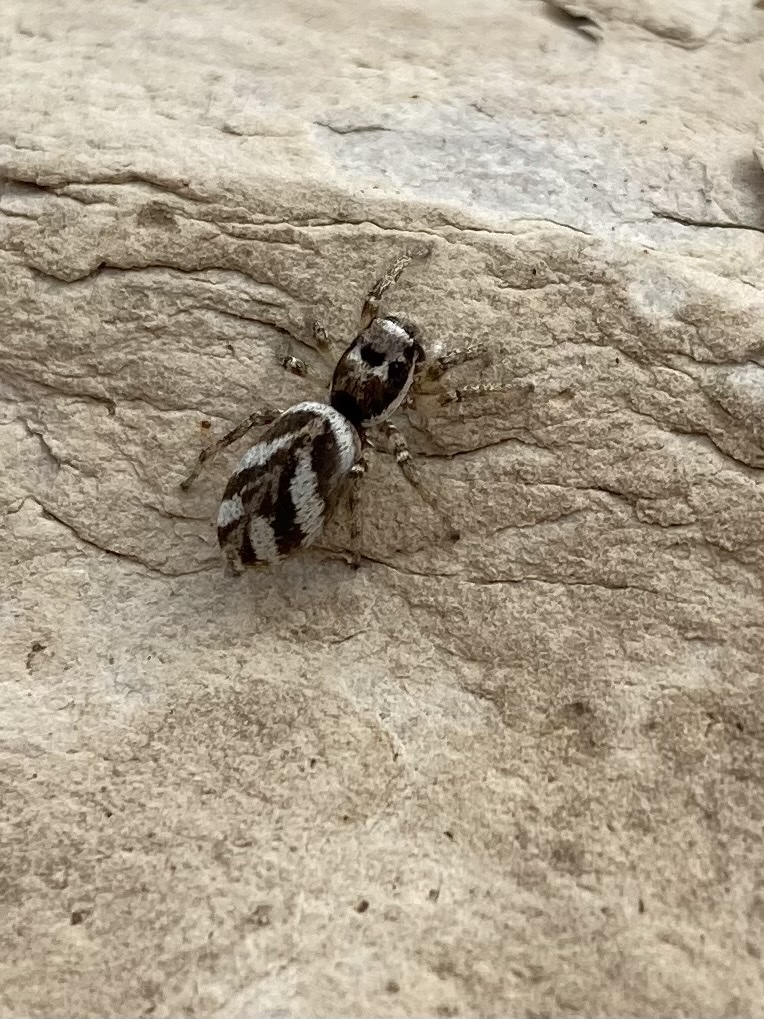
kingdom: Animalia
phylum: Arthropoda
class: Arachnida
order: Araneae
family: Salticidae
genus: Salticus
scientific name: Salticus scenicus
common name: Zebra jumper
